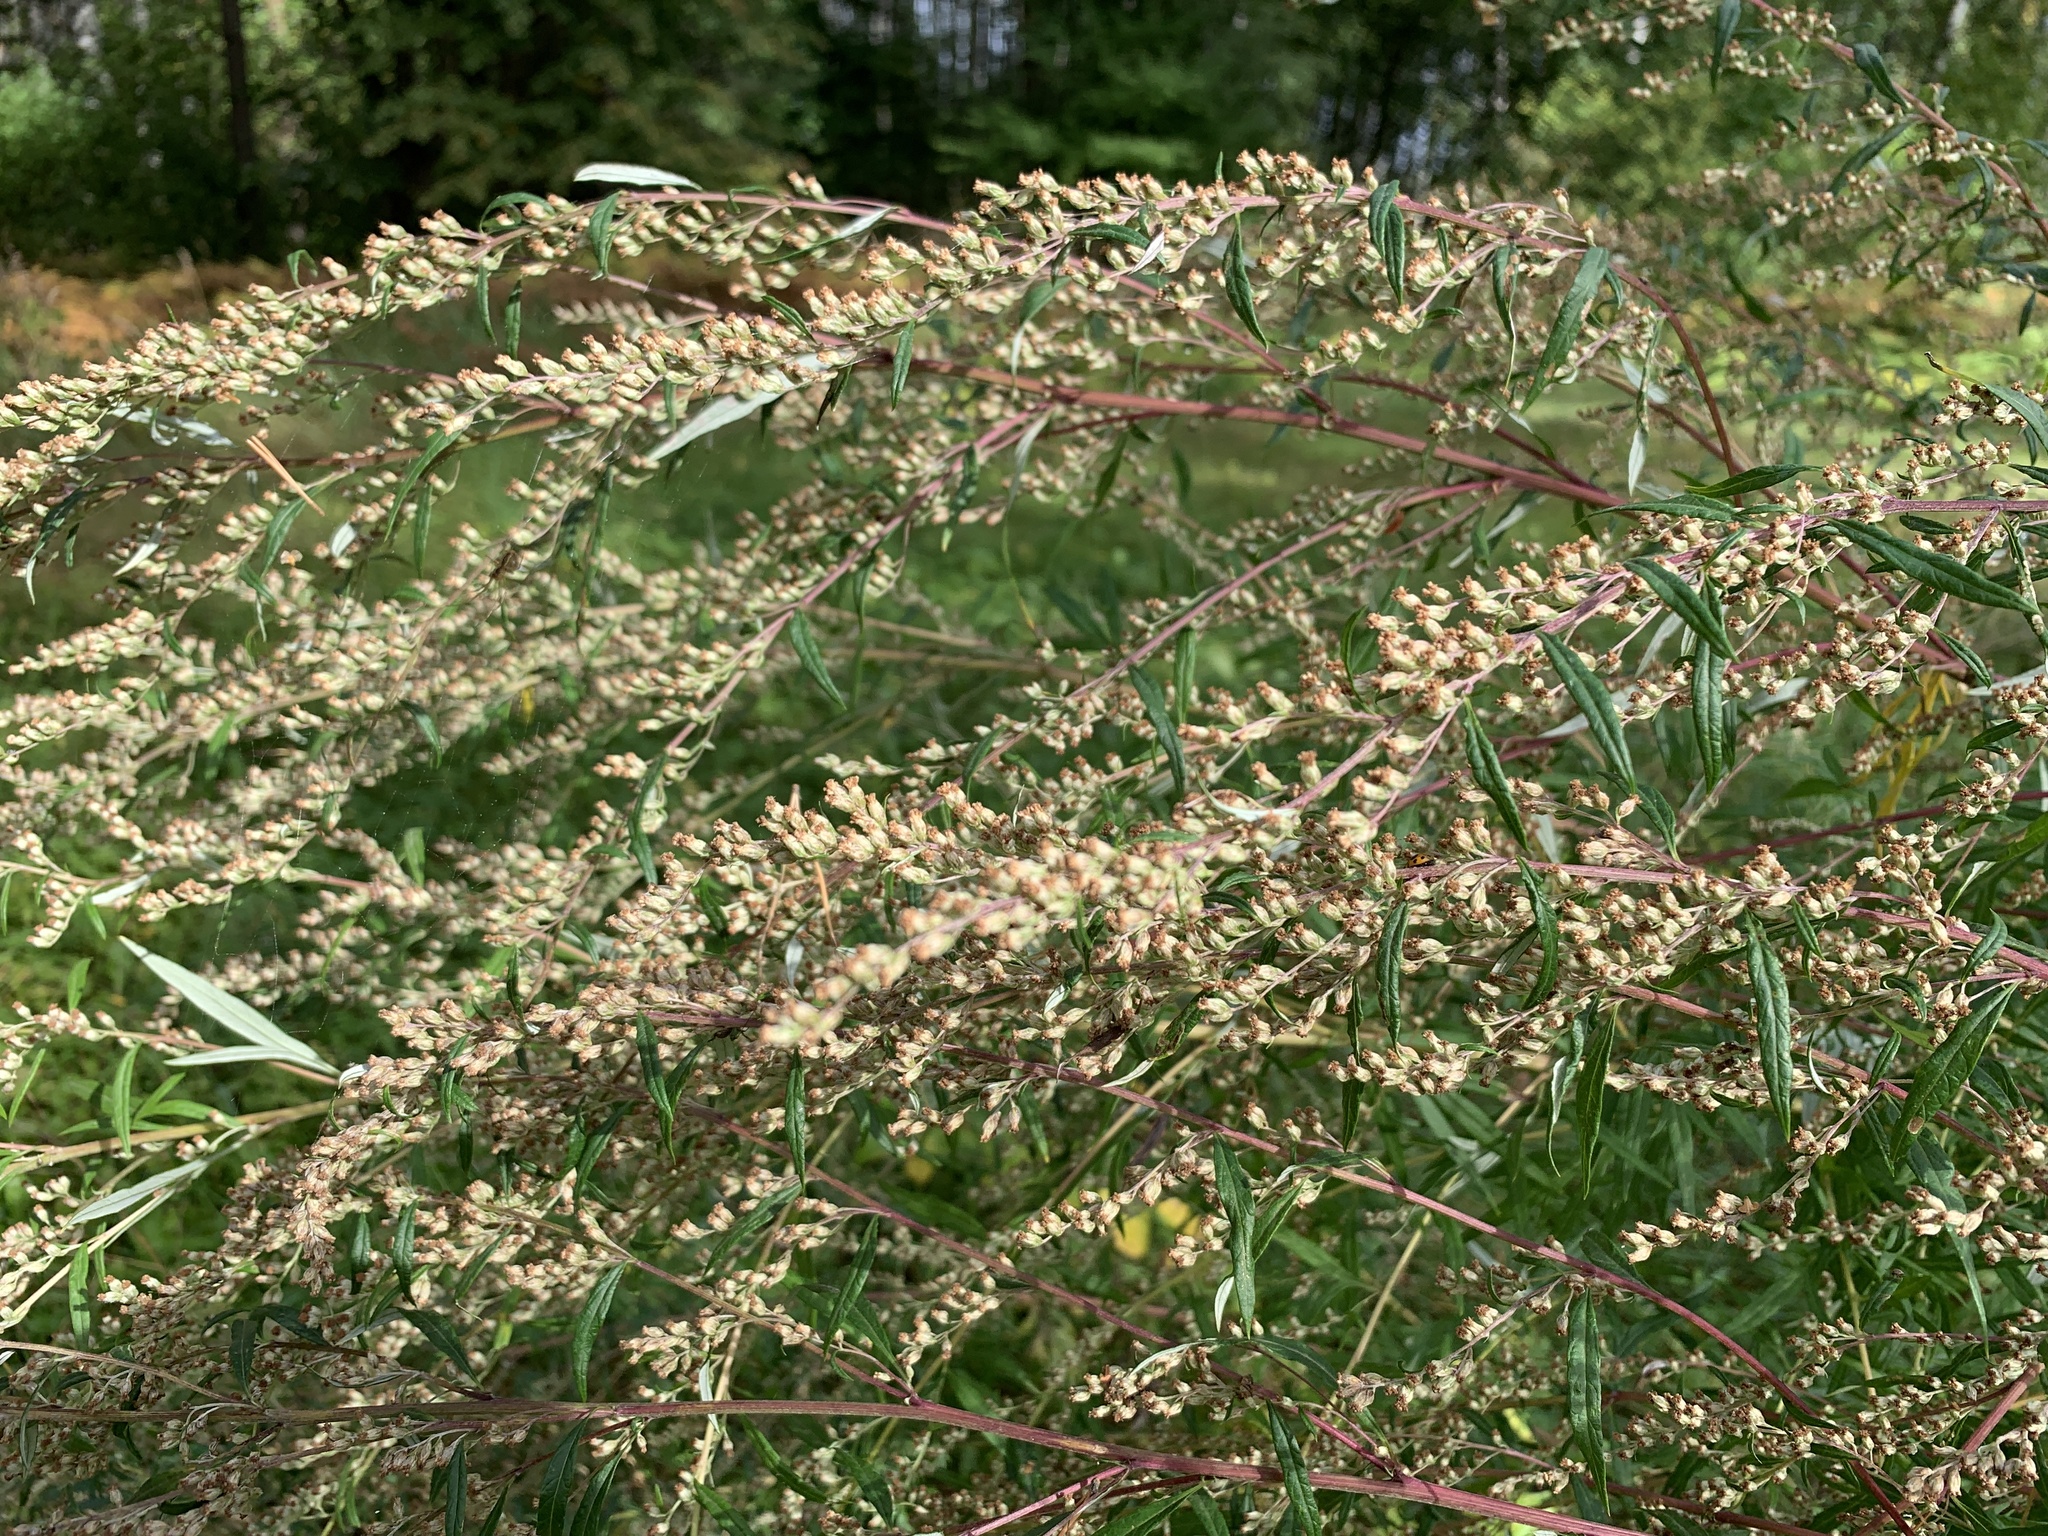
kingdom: Plantae
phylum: Tracheophyta
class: Magnoliopsida
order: Asterales
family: Asteraceae
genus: Artemisia
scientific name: Artemisia vulgaris
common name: Mugwort
